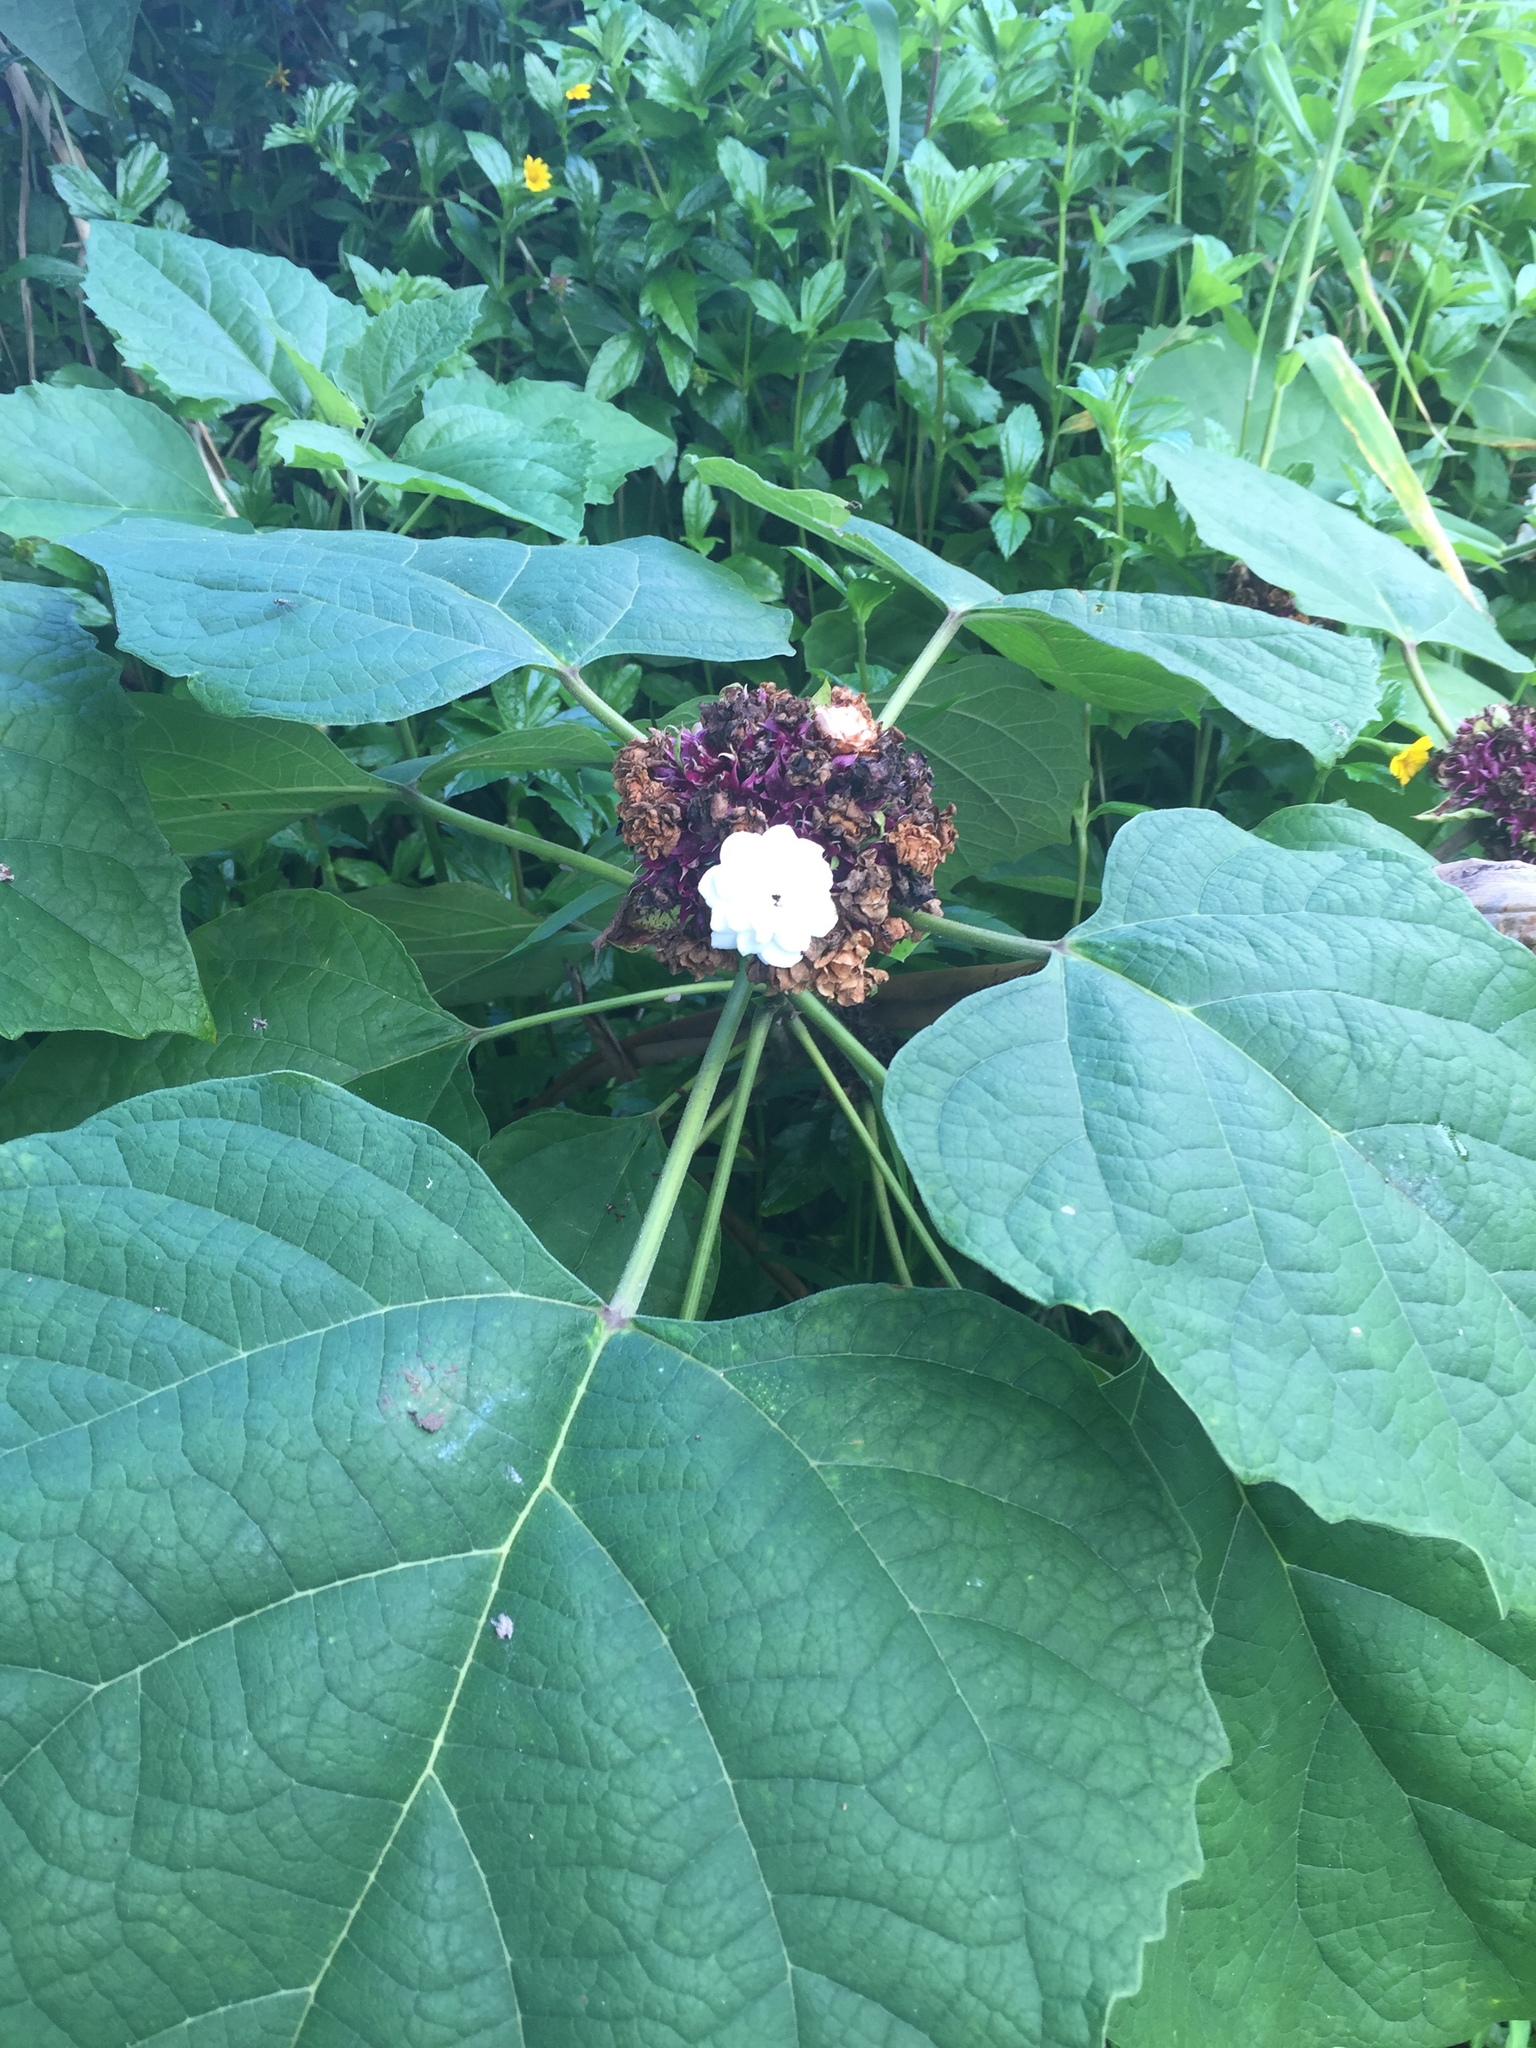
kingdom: Plantae
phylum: Tracheophyta
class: Magnoliopsida
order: Lamiales
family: Lamiaceae
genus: Clerodendrum
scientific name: Clerodendrum chinense
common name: Stickbush
